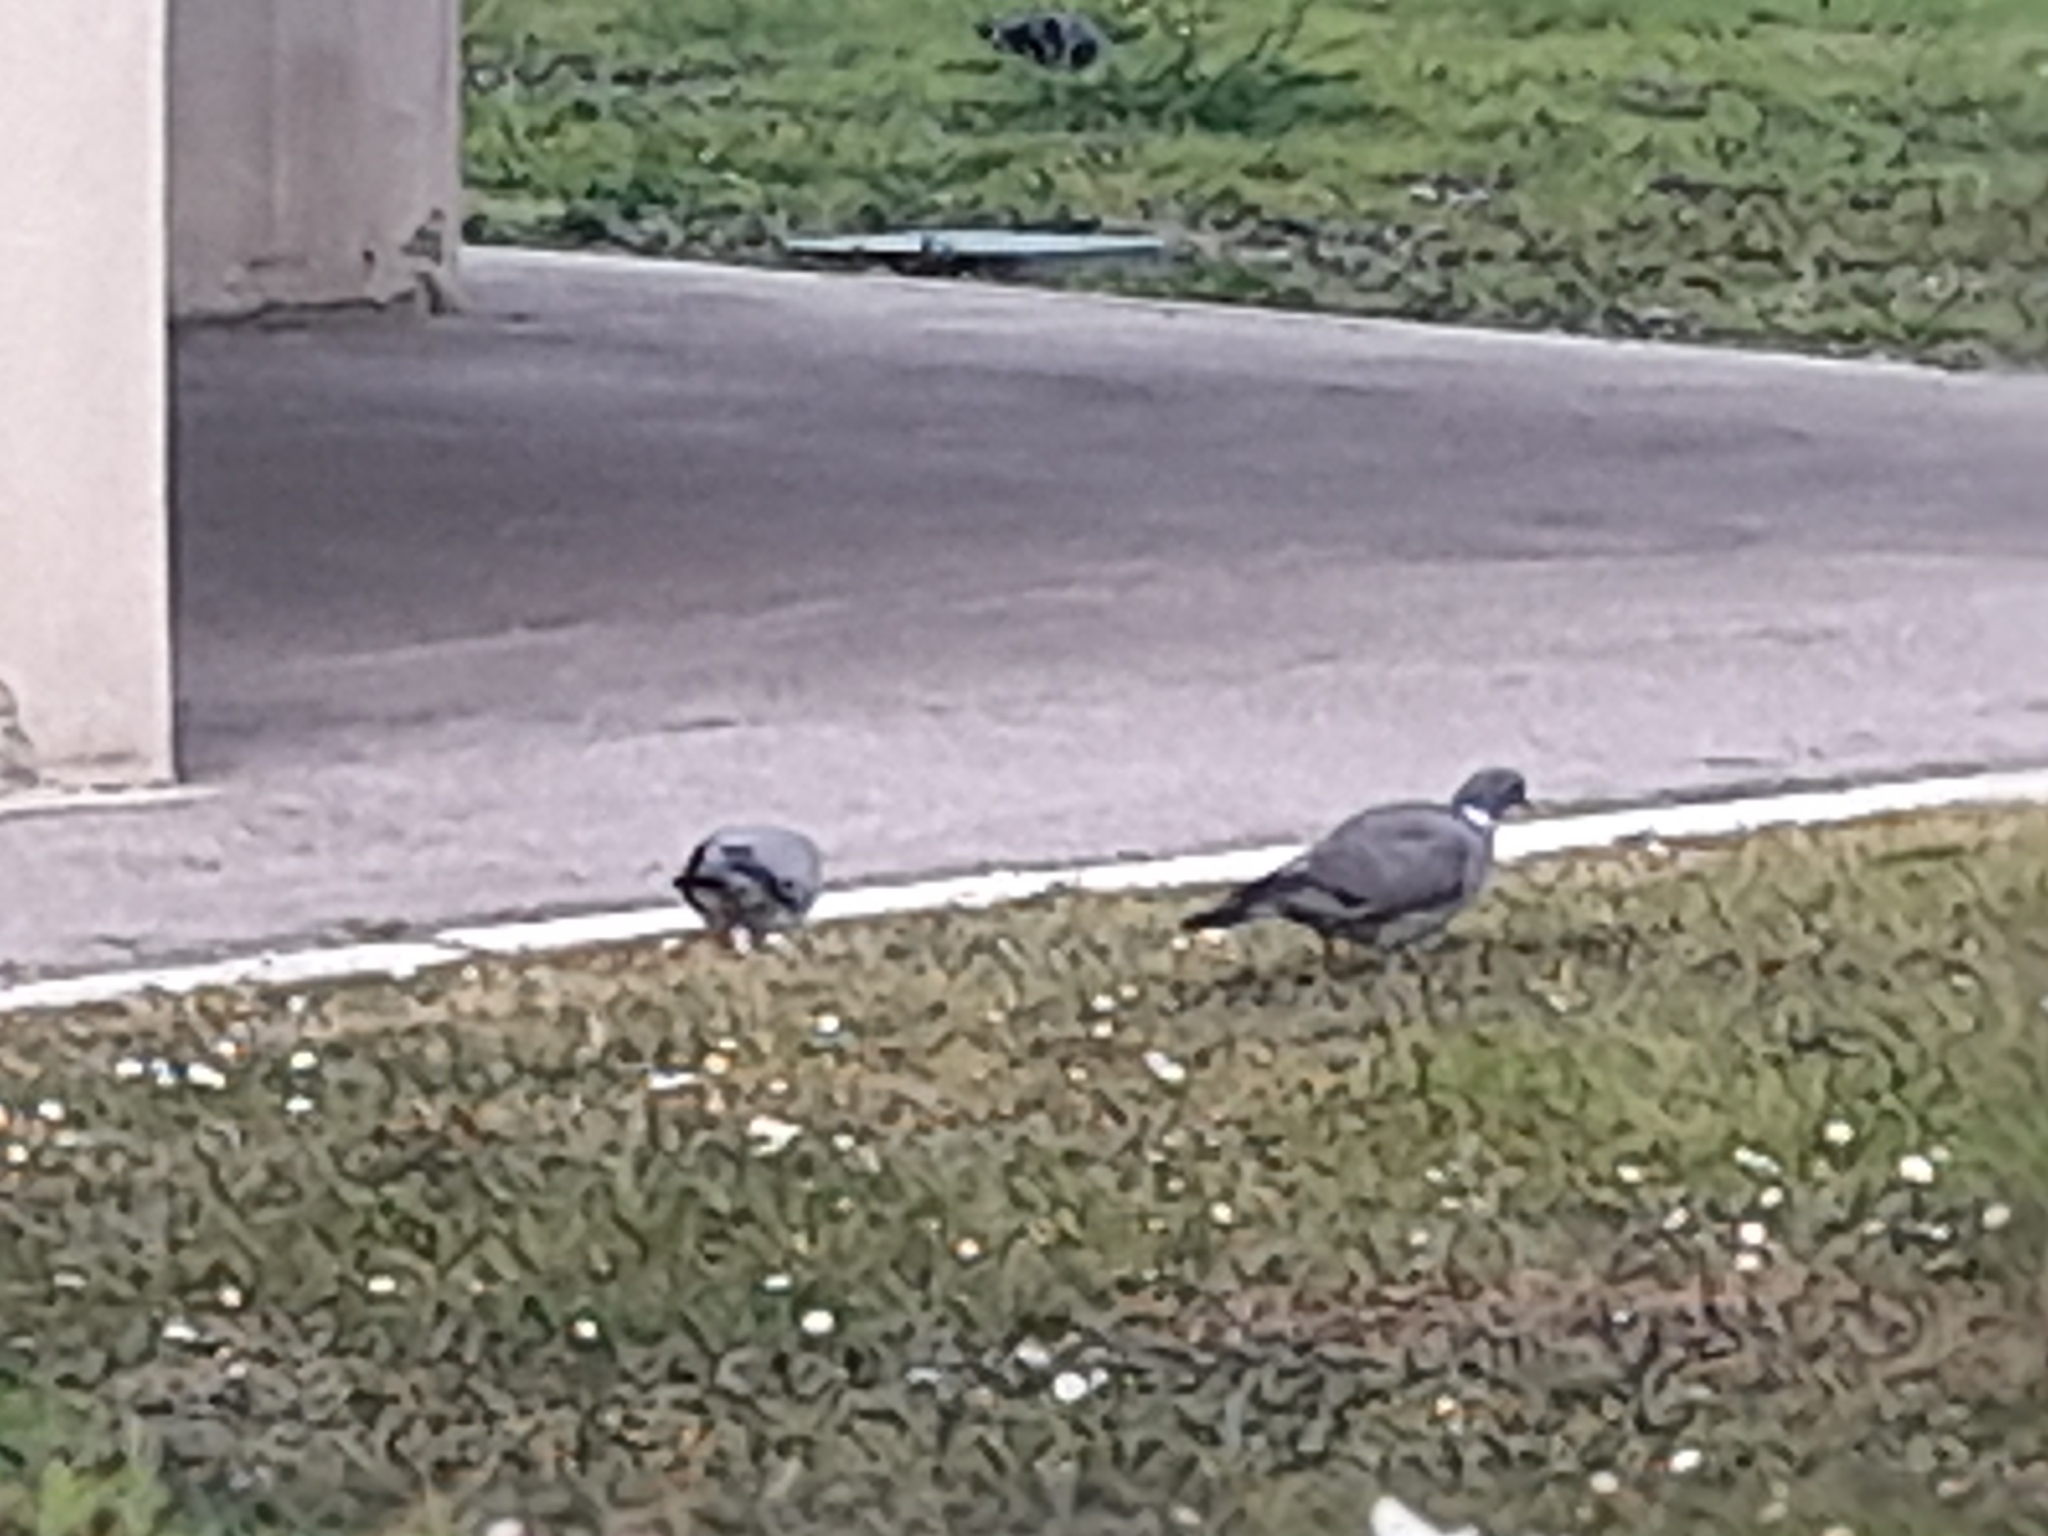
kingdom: Animalia
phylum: Chordata
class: Aves
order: Columbiformes
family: Columbidae
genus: Columba
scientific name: Columba palumbus
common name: Common wood pigeon
